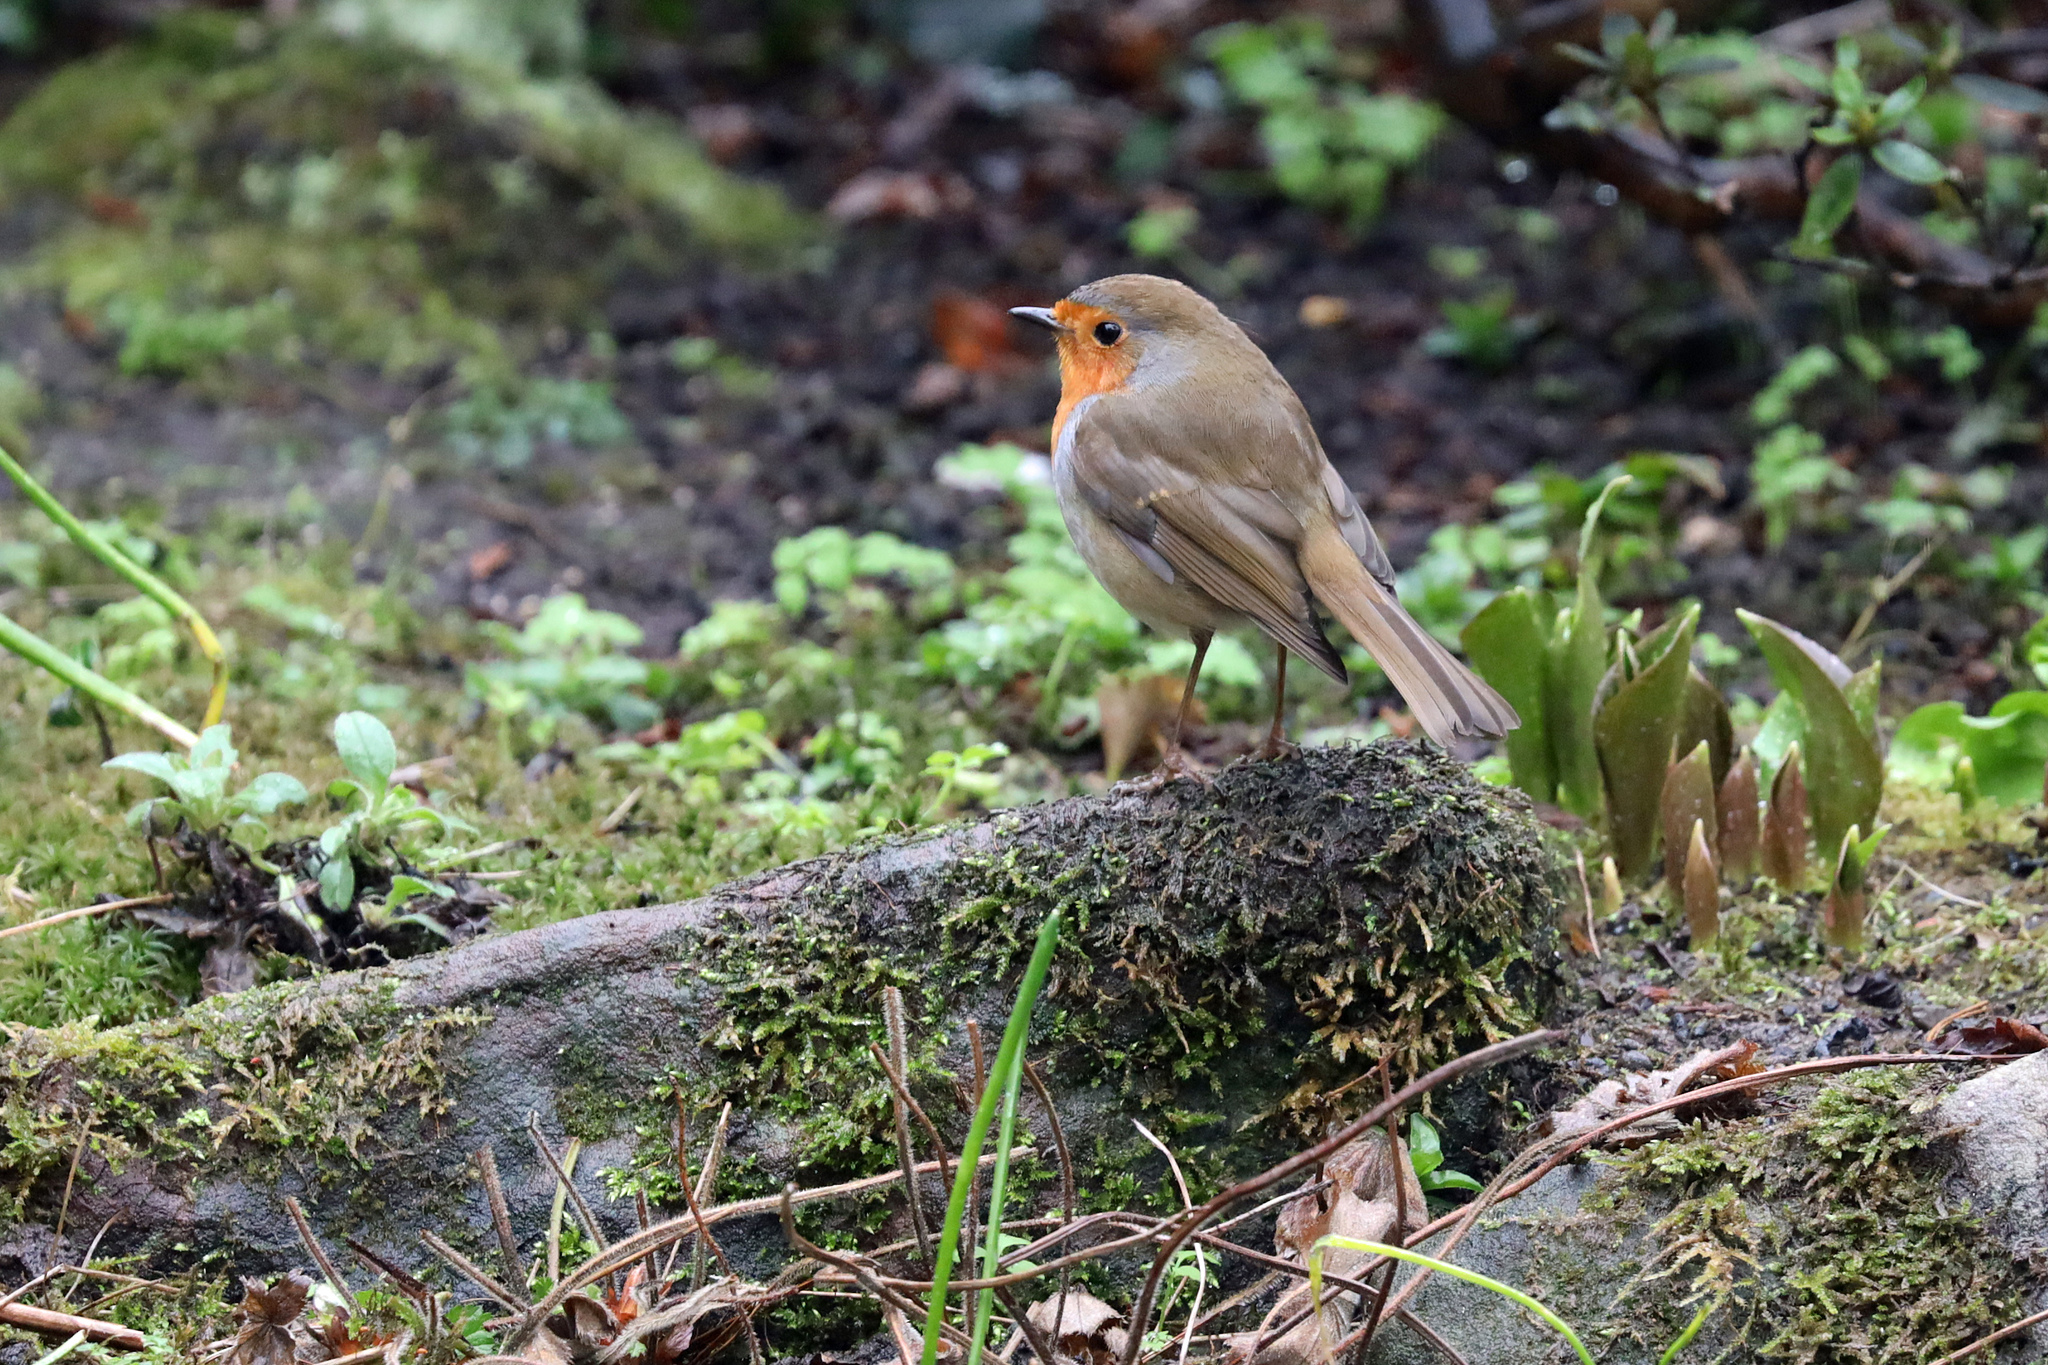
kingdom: Animalia
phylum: Chordata
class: Aves
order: Passeriformes
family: Muscicapidae
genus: Erithacus
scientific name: Erithacus rubecula
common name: European robin
